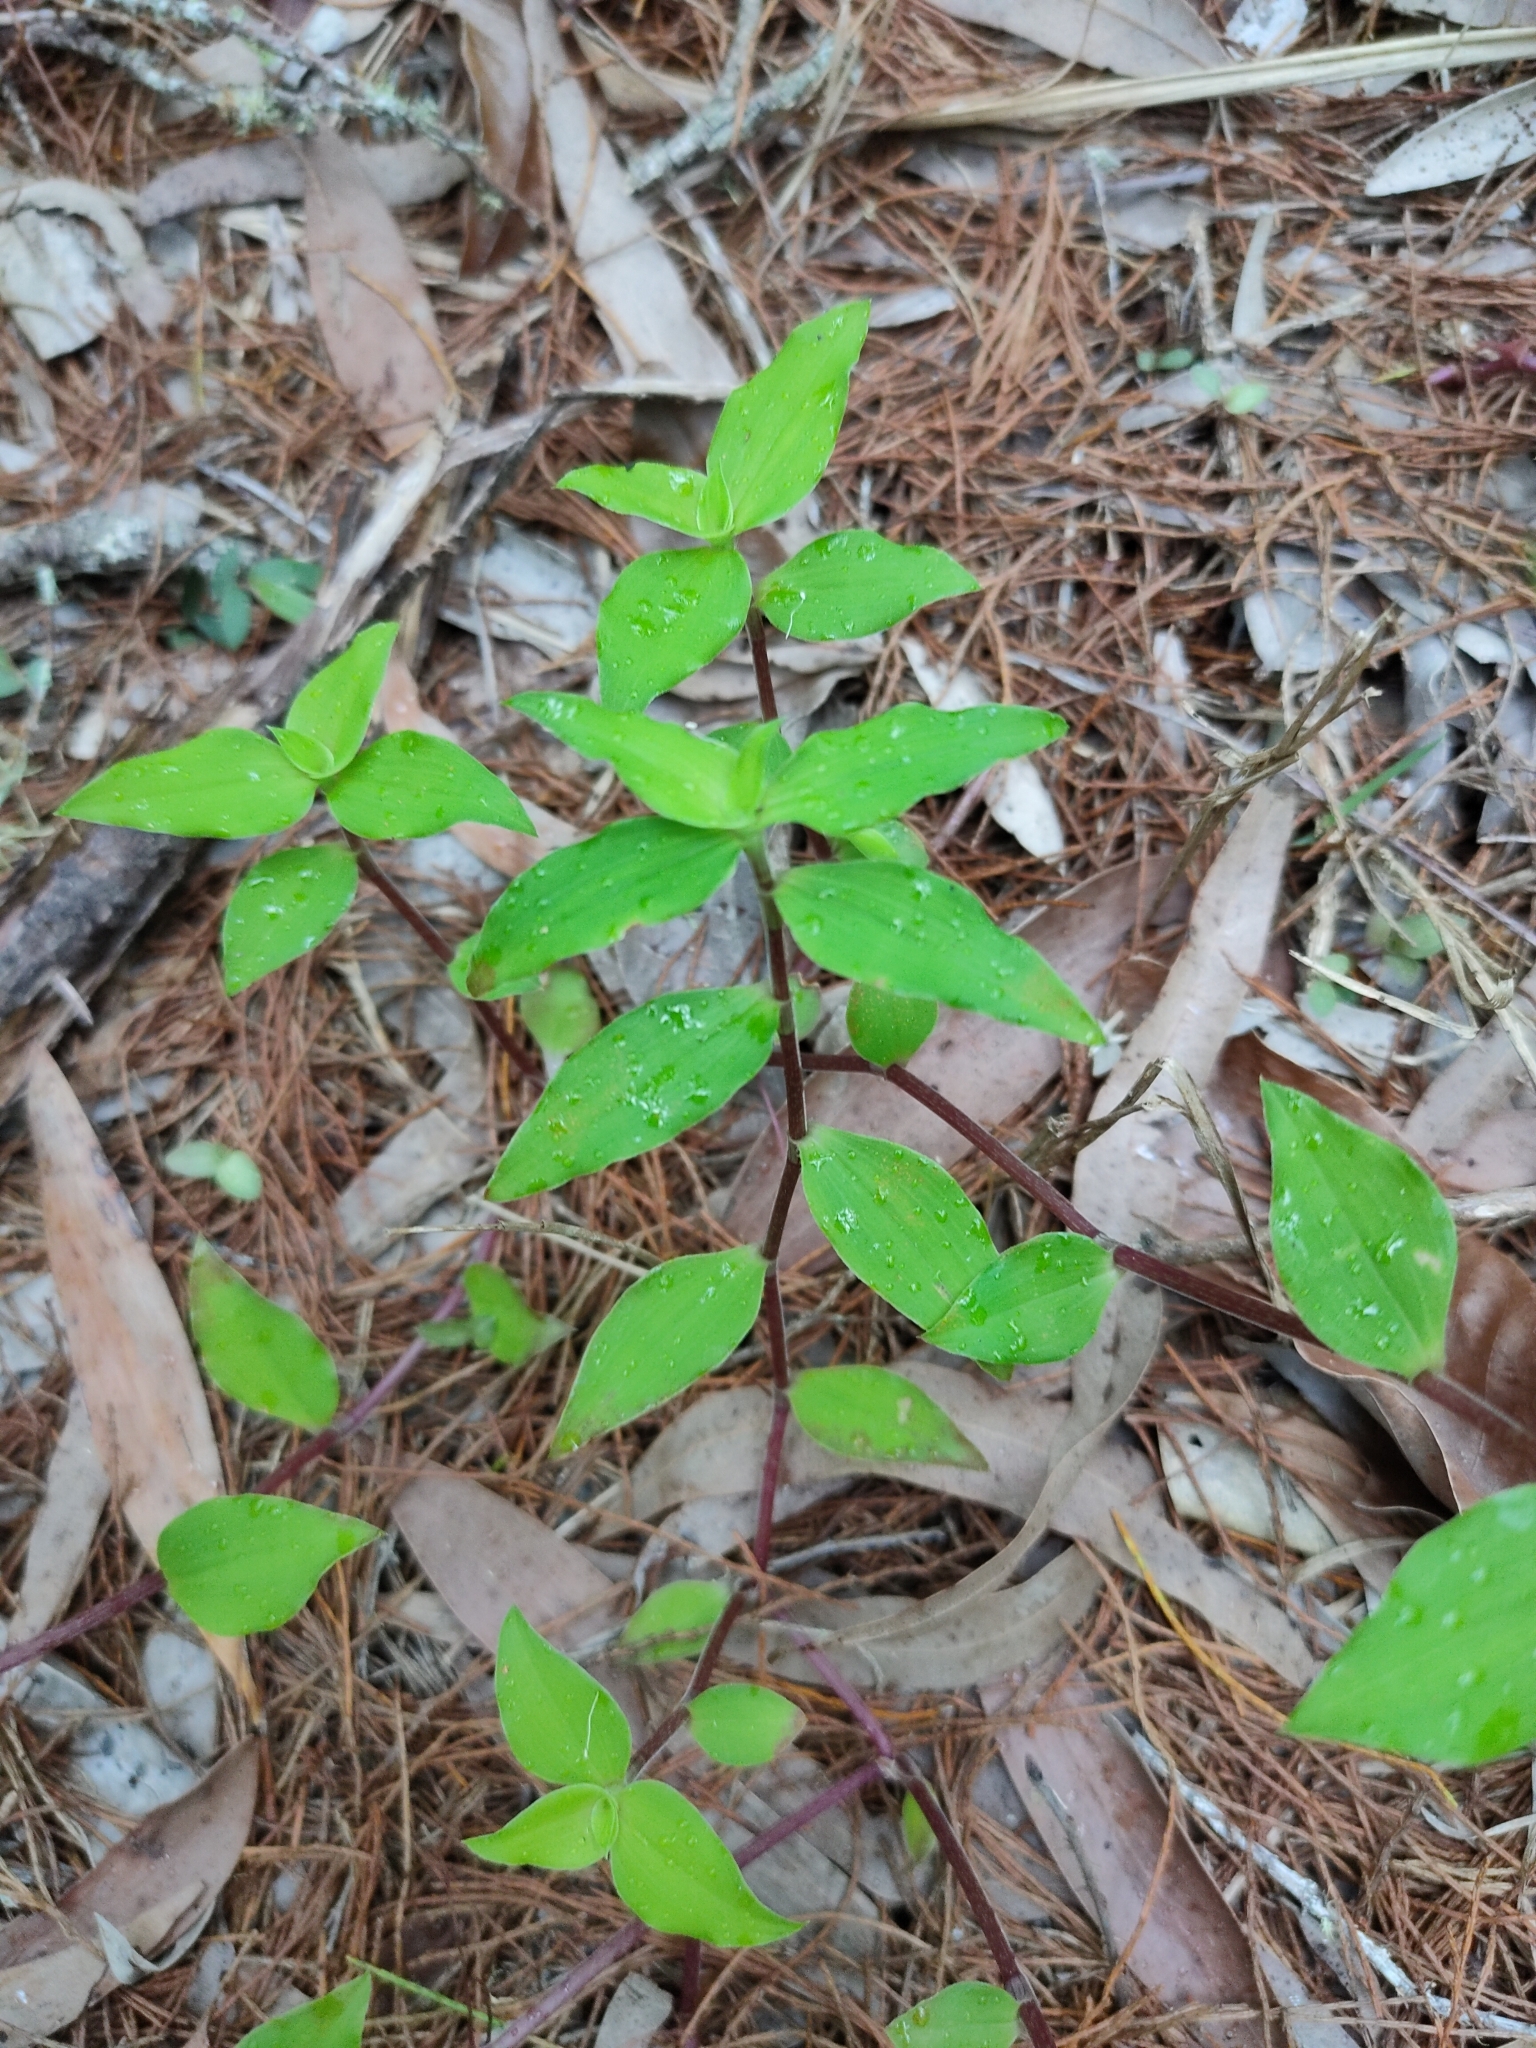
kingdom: Plantae
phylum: Tracheophyta
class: Liliopsida
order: Commelinales
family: Commelinaceae
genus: Callisia
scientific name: Callisia repens
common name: Creeping inchplant
